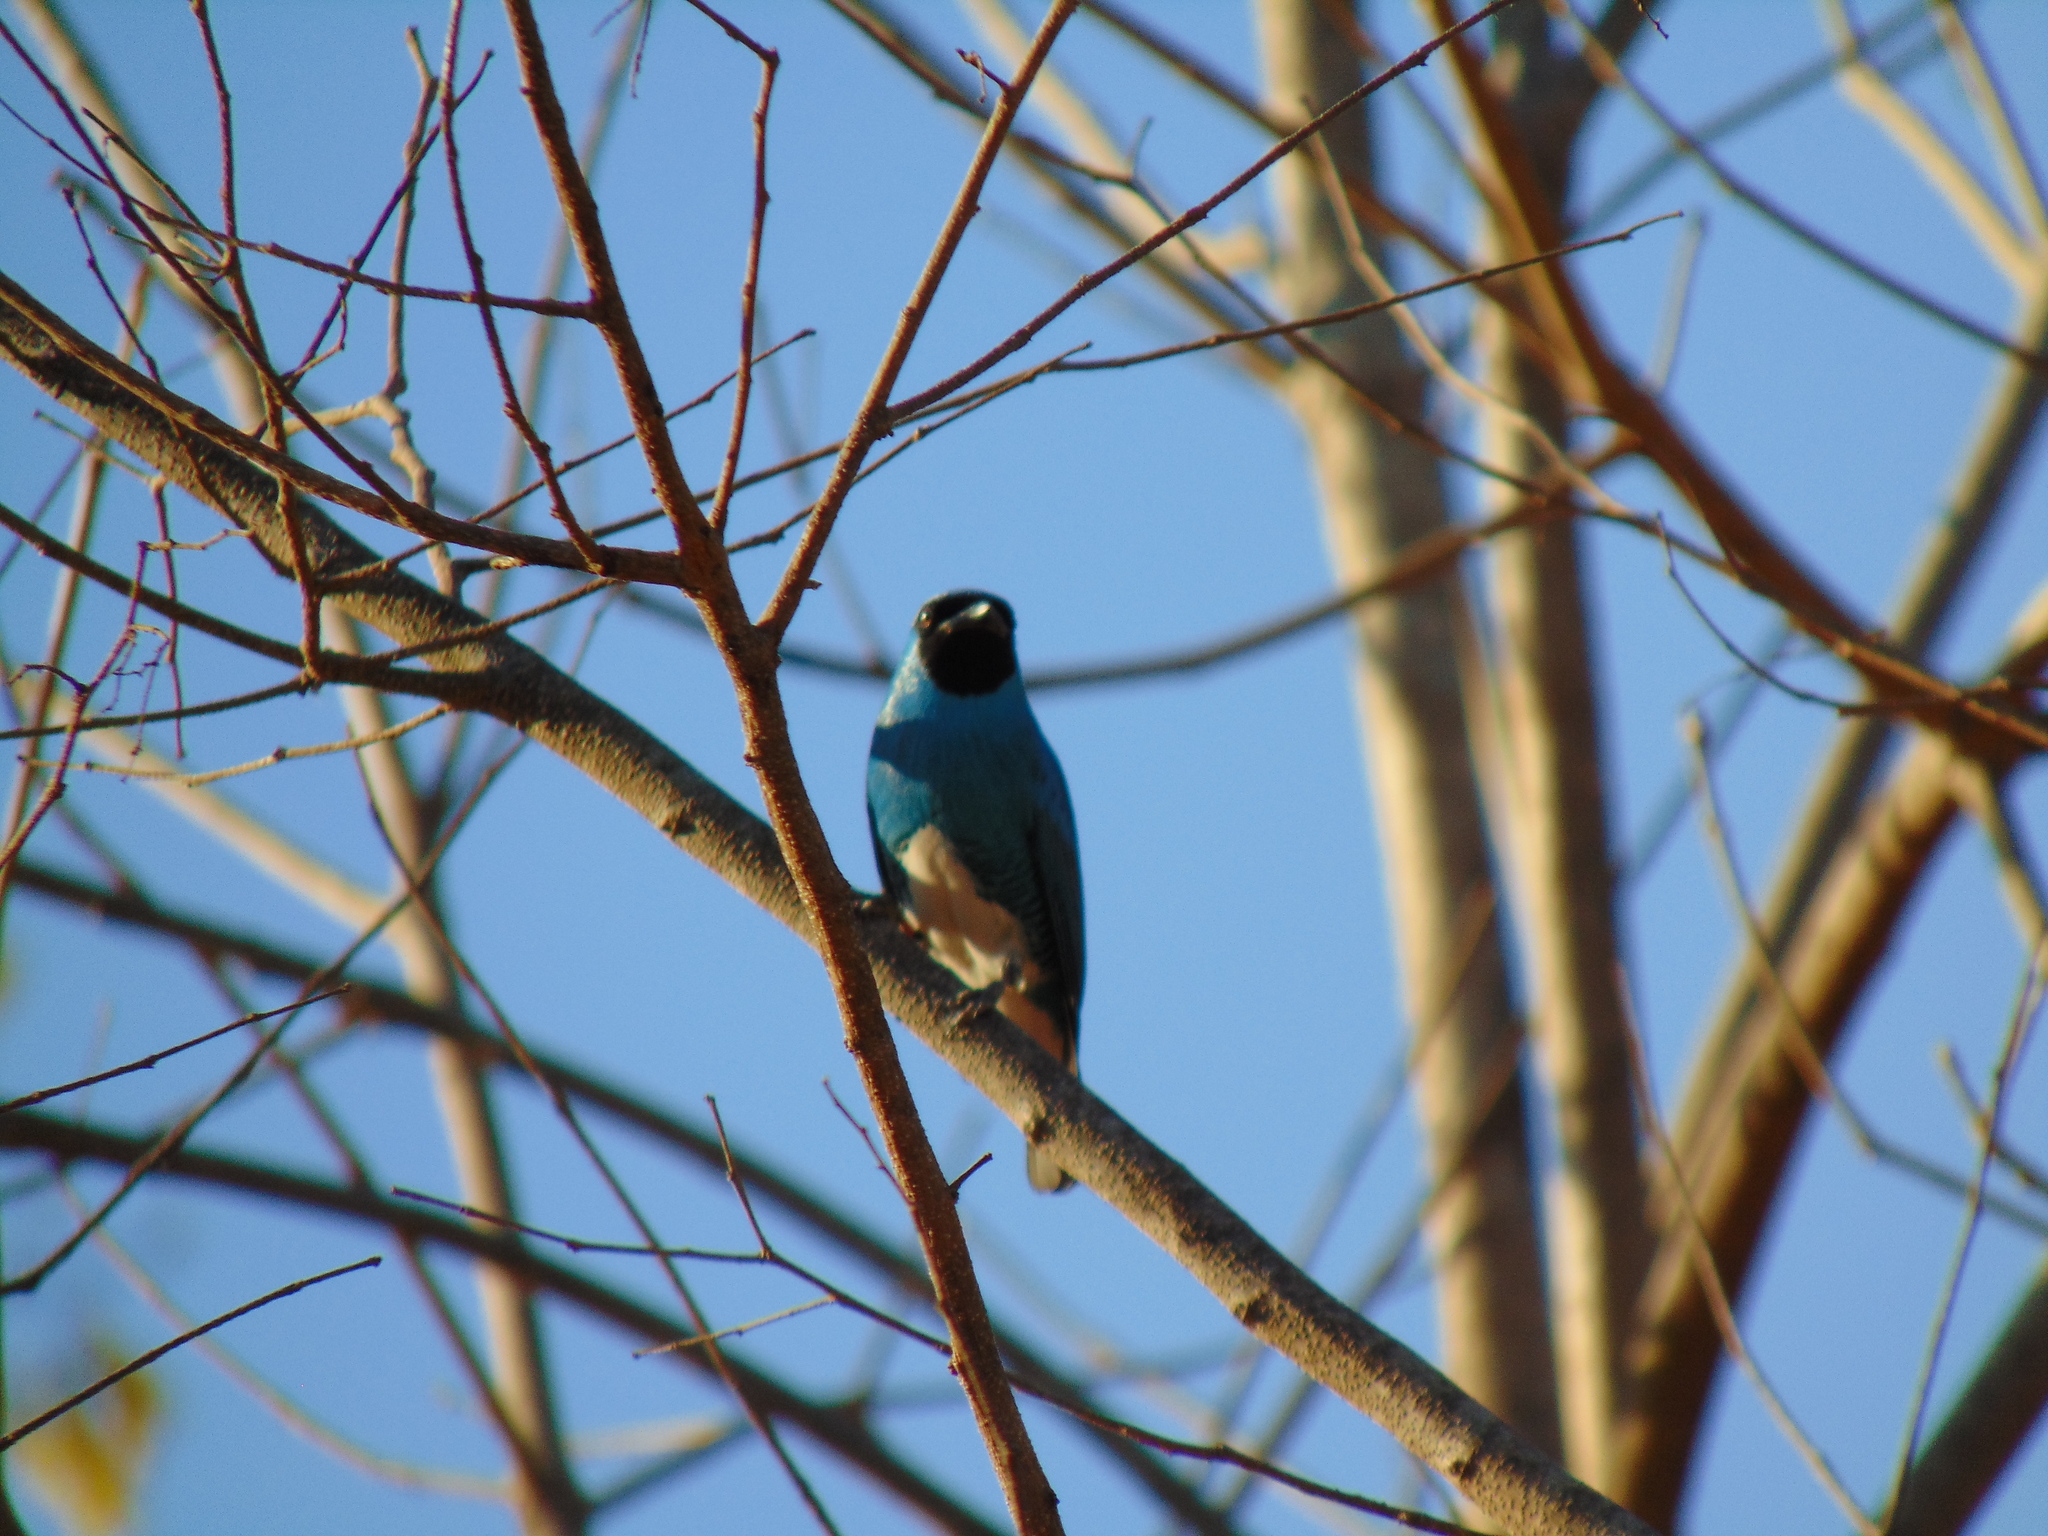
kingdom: Animalia
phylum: Chordata
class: Aves
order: Passeriformes
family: Thraupidae
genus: Tersina
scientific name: Tersina viridis
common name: Swallow tanager
